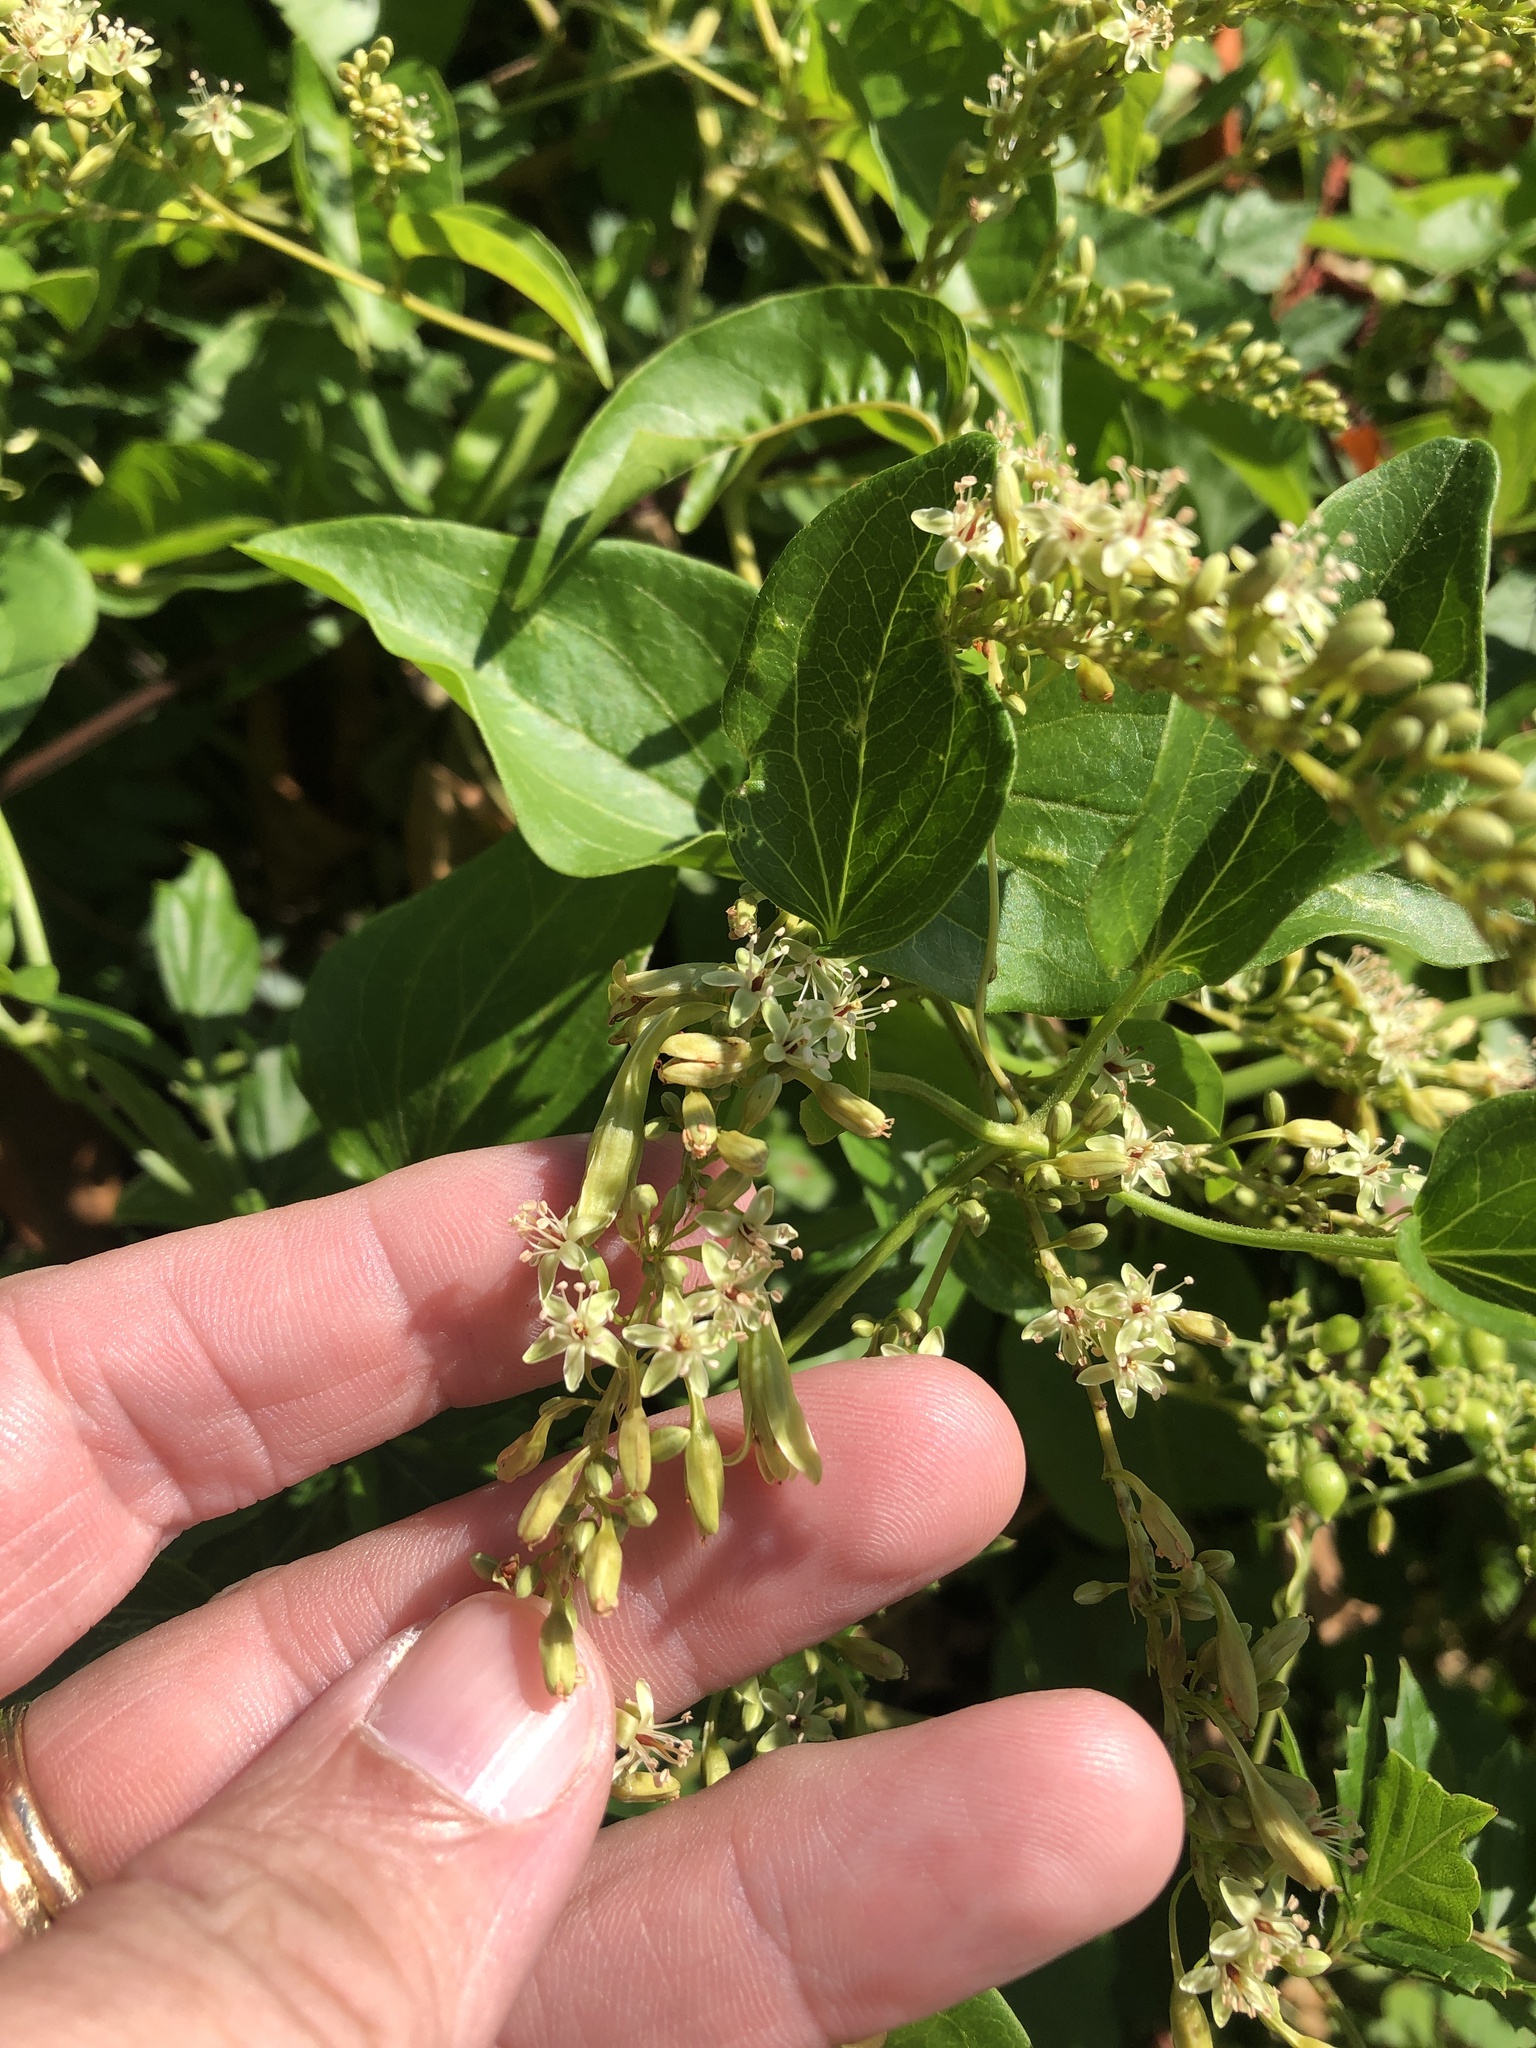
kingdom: Plantae
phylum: Tracheophyta
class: Magnoliopsida
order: Caryophyllales
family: Polygonaceae
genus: Brunnichia
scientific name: Brunnichia ovata
